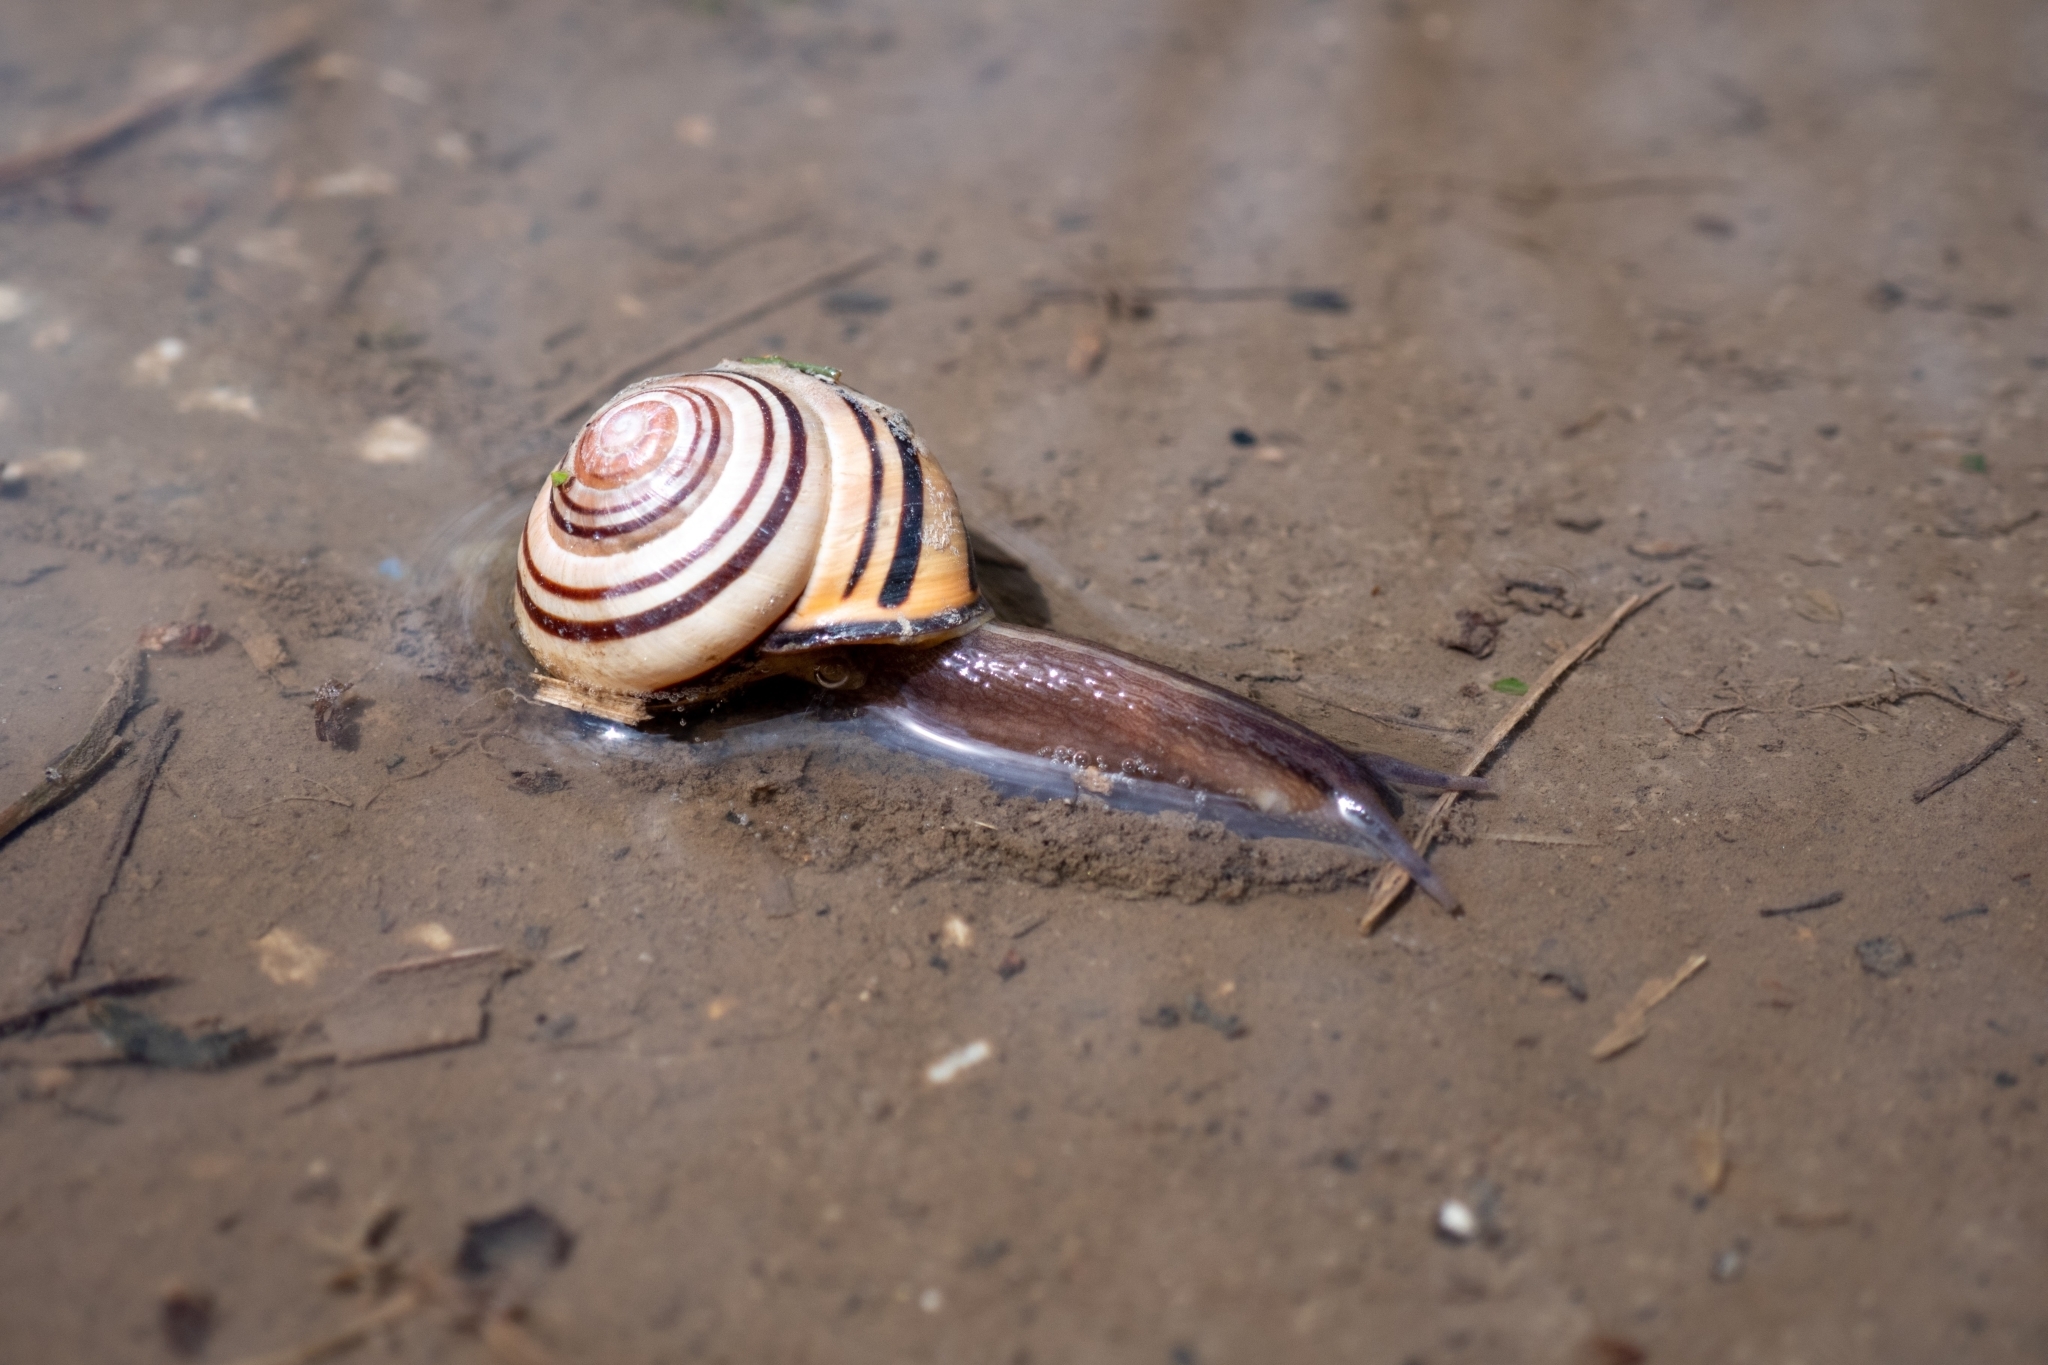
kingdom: Animalia
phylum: Mollusca
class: Gastropoda
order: Stylommatophora
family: Helicidae
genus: Cepaea
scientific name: Cepaea nemoralis
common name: Grovesnail
